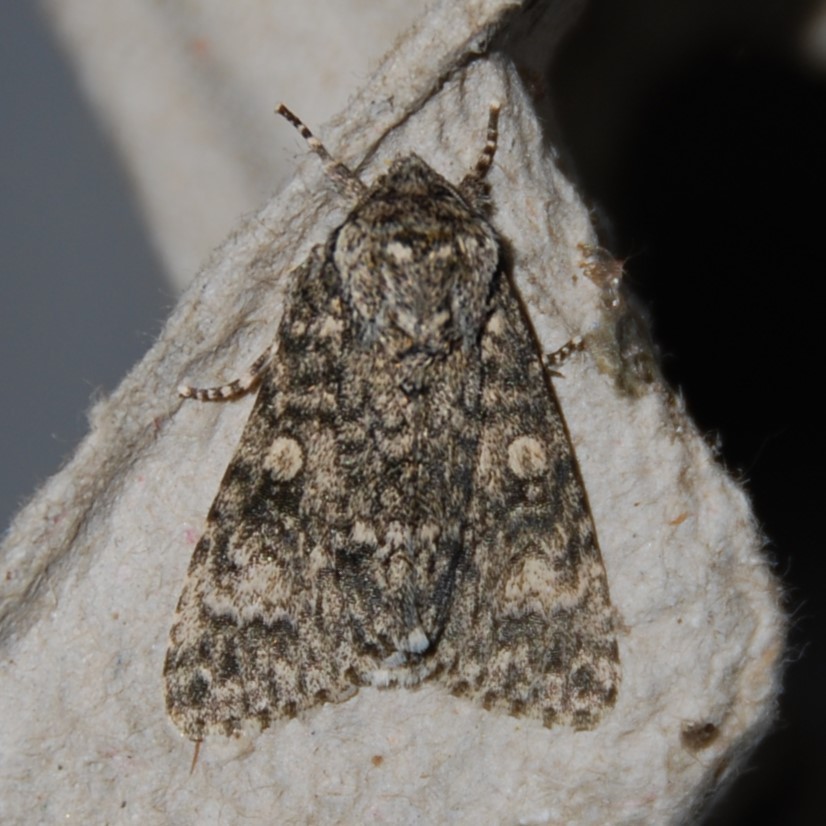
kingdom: Animalia
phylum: Arthropoda
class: Insecta
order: Lepidoptera
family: Noctuidae
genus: Acronicta
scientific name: Acronicta megacephala
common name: Poplar grey
